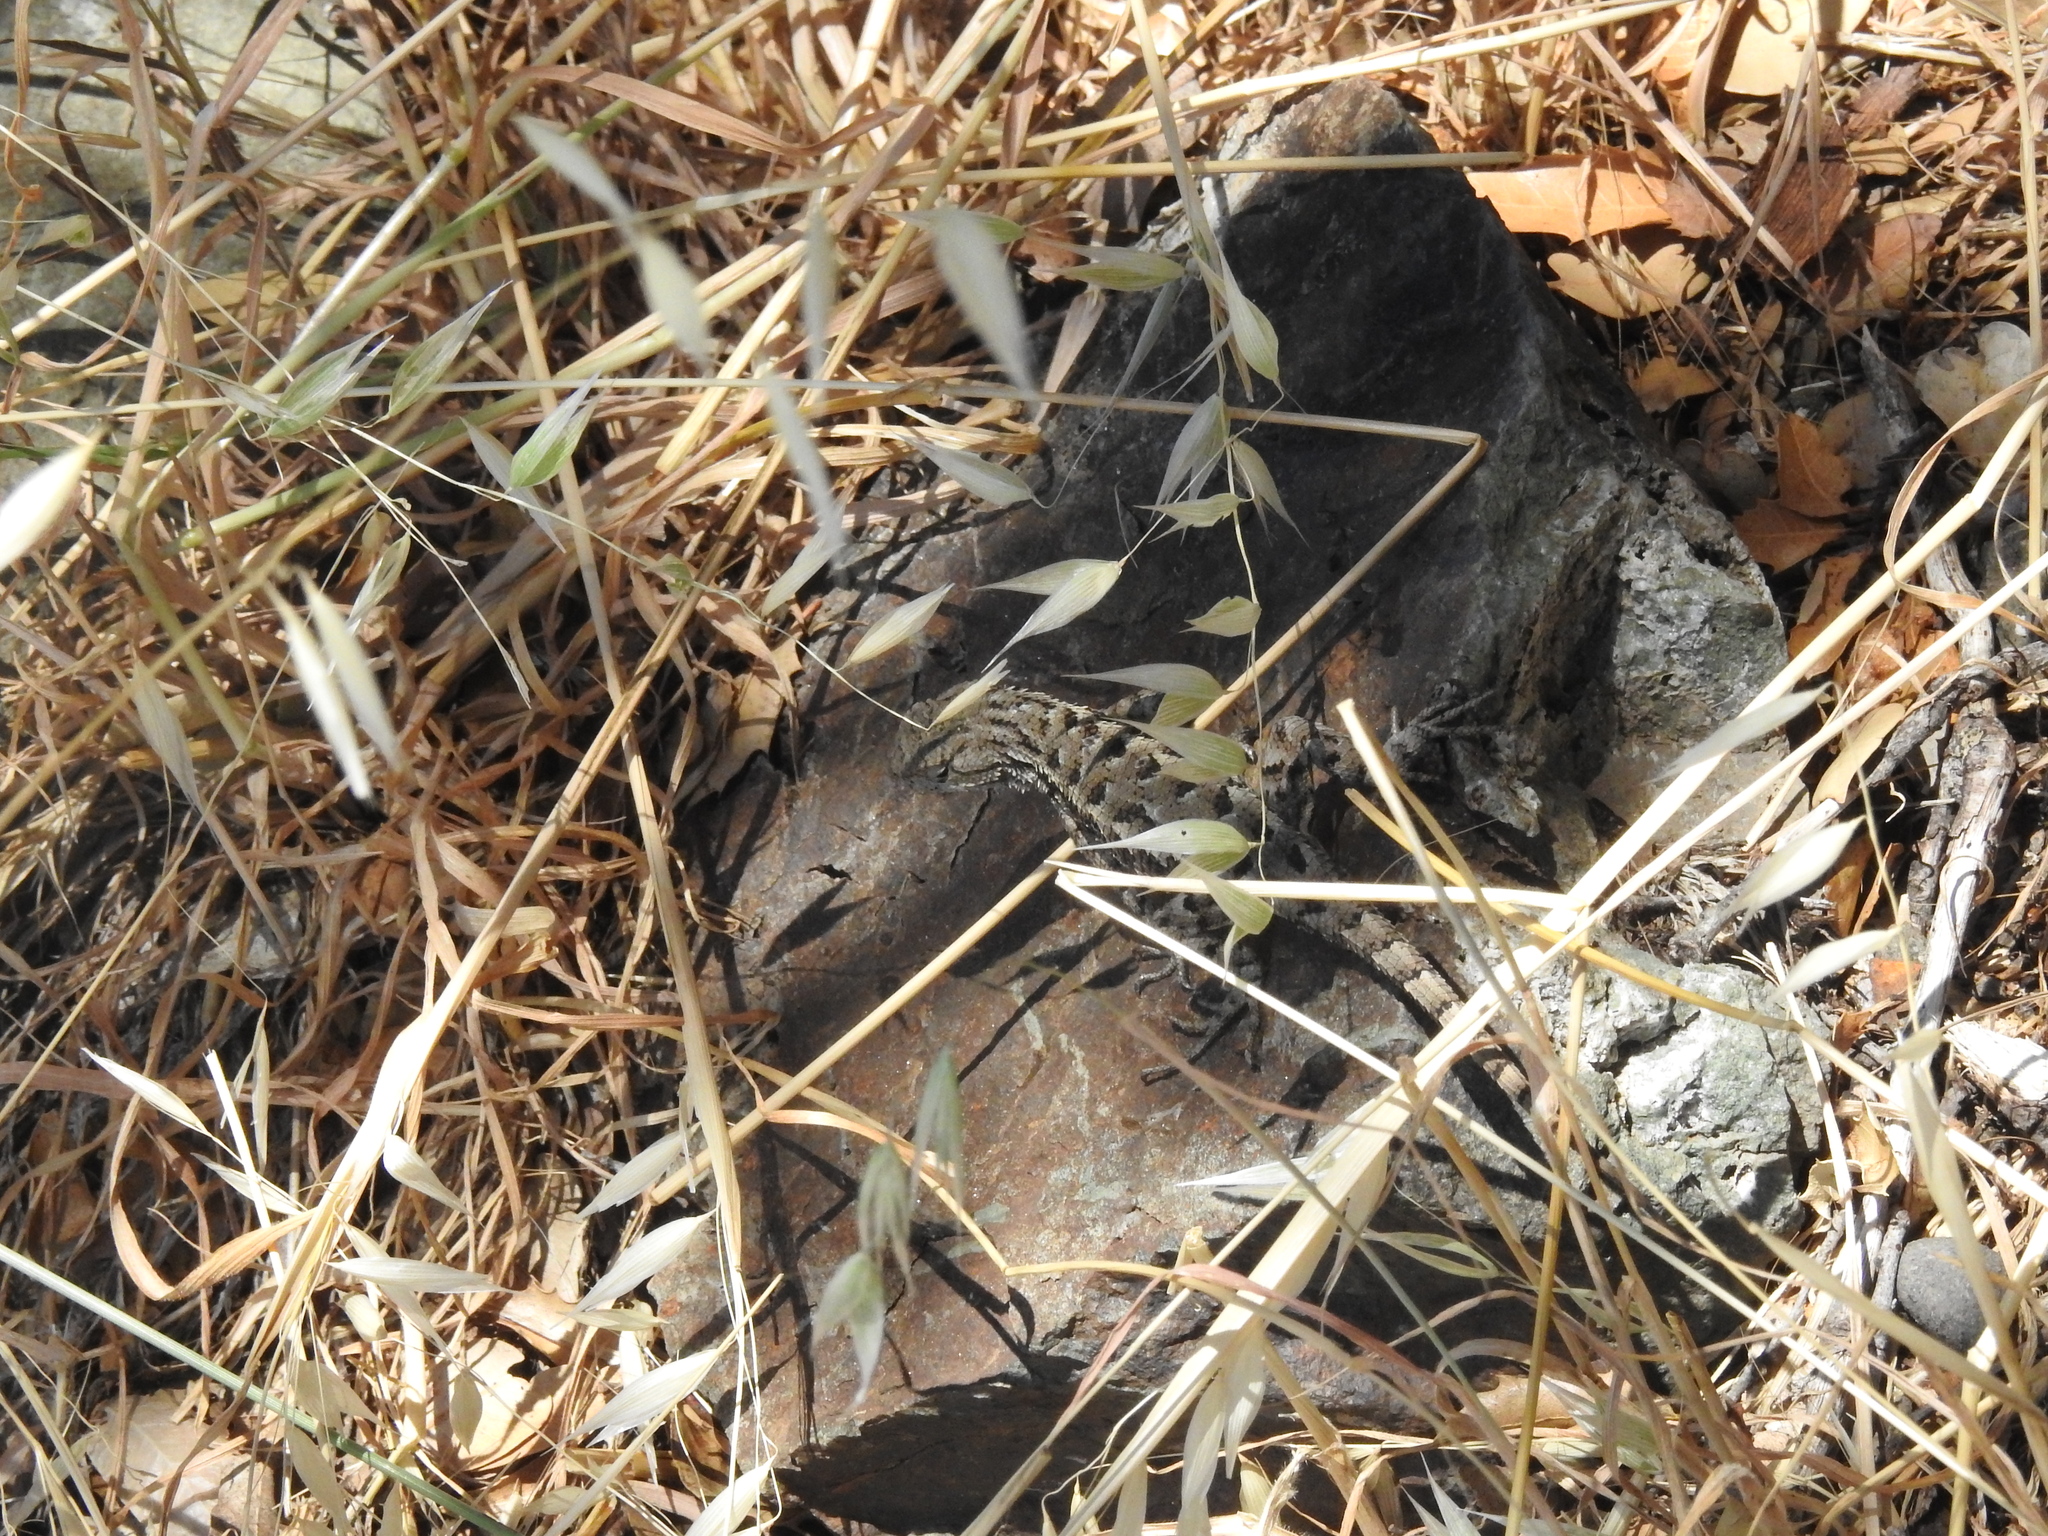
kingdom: Animalia
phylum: Chordata
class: Squamata
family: Phrynosomatidae
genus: Sceloporus
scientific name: Sceloporus occidentalis
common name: Western fence lizard
